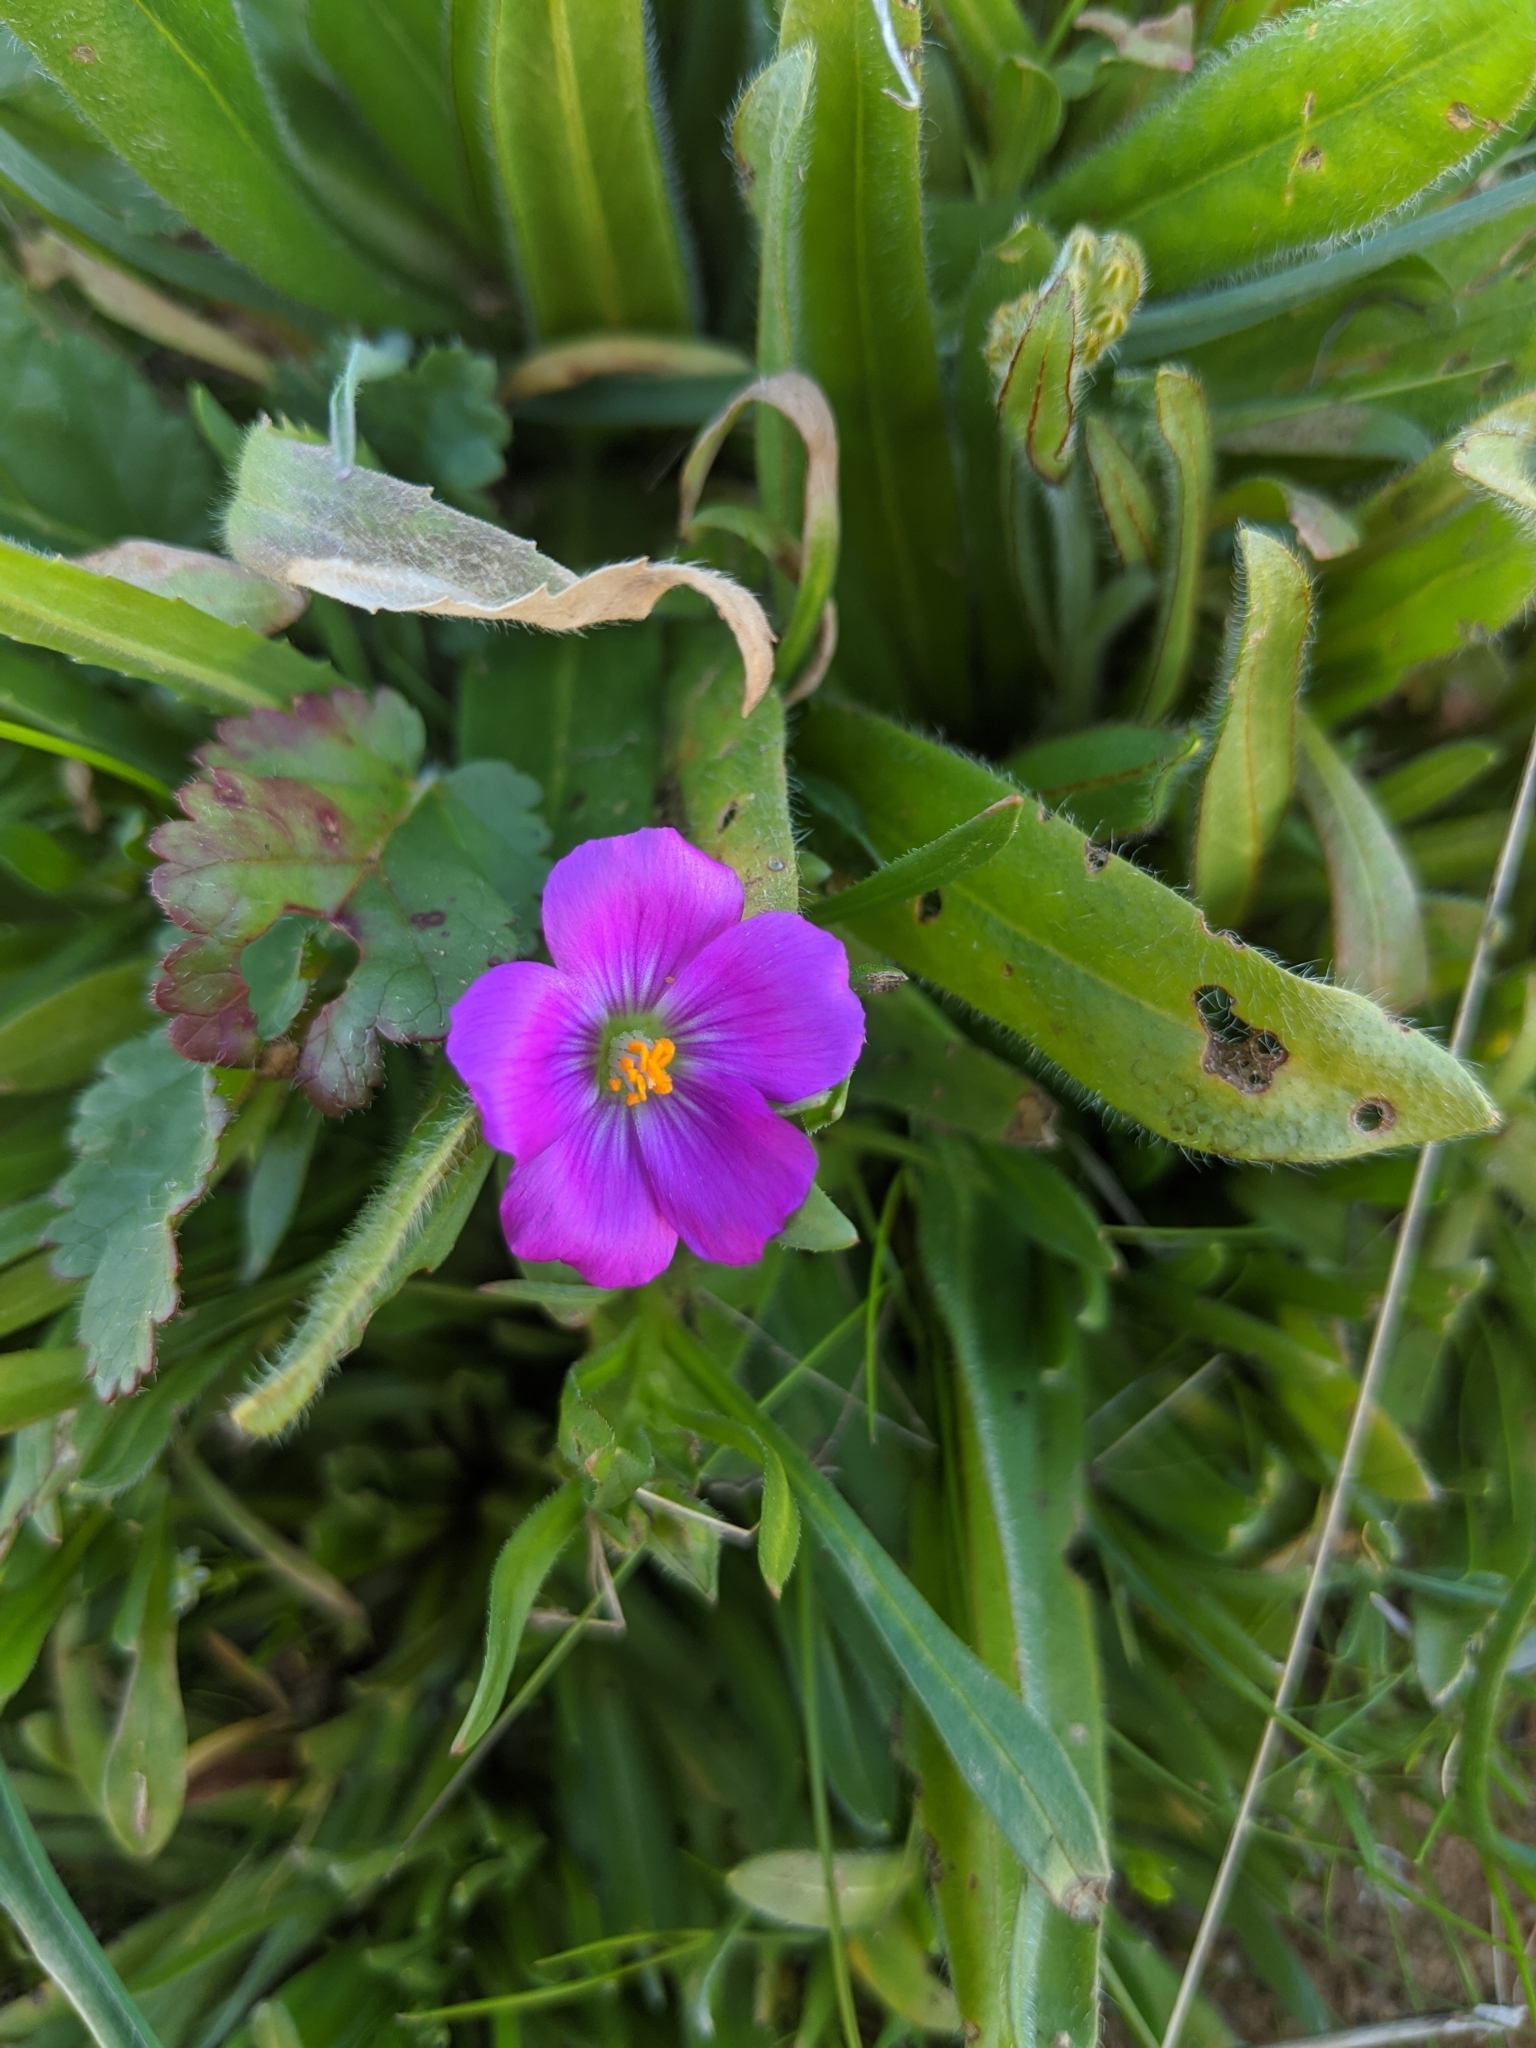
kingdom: Plantae
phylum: Tracheophyta
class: Magnoliopsida
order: Caryophyllales
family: Montiaceae
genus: Calandrinia
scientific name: Calandrinia menziesii
